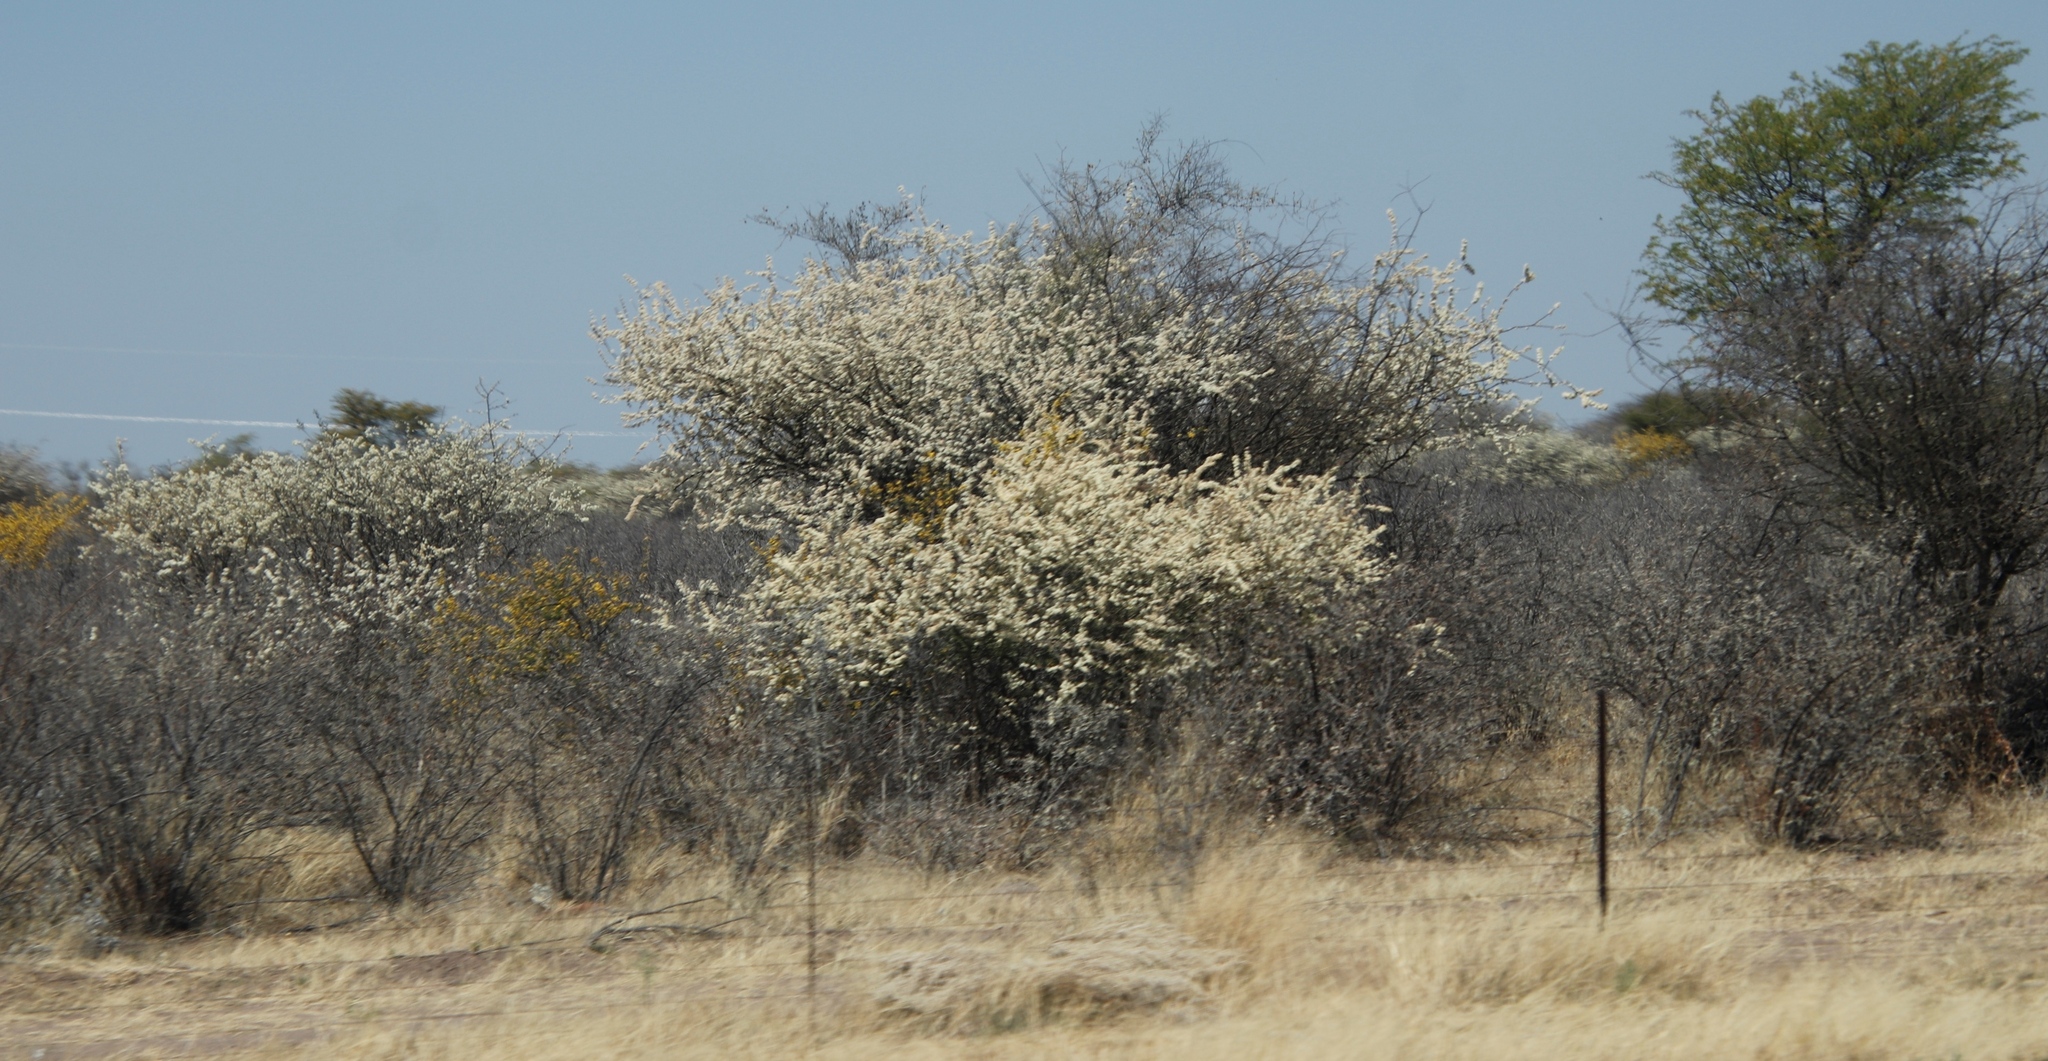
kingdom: Plantae
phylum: Tracheophyta
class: Magnoliopsida
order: Fabales
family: Fabaceae
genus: Senegalia
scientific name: Senegalia mellifera
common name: Hookthorn
